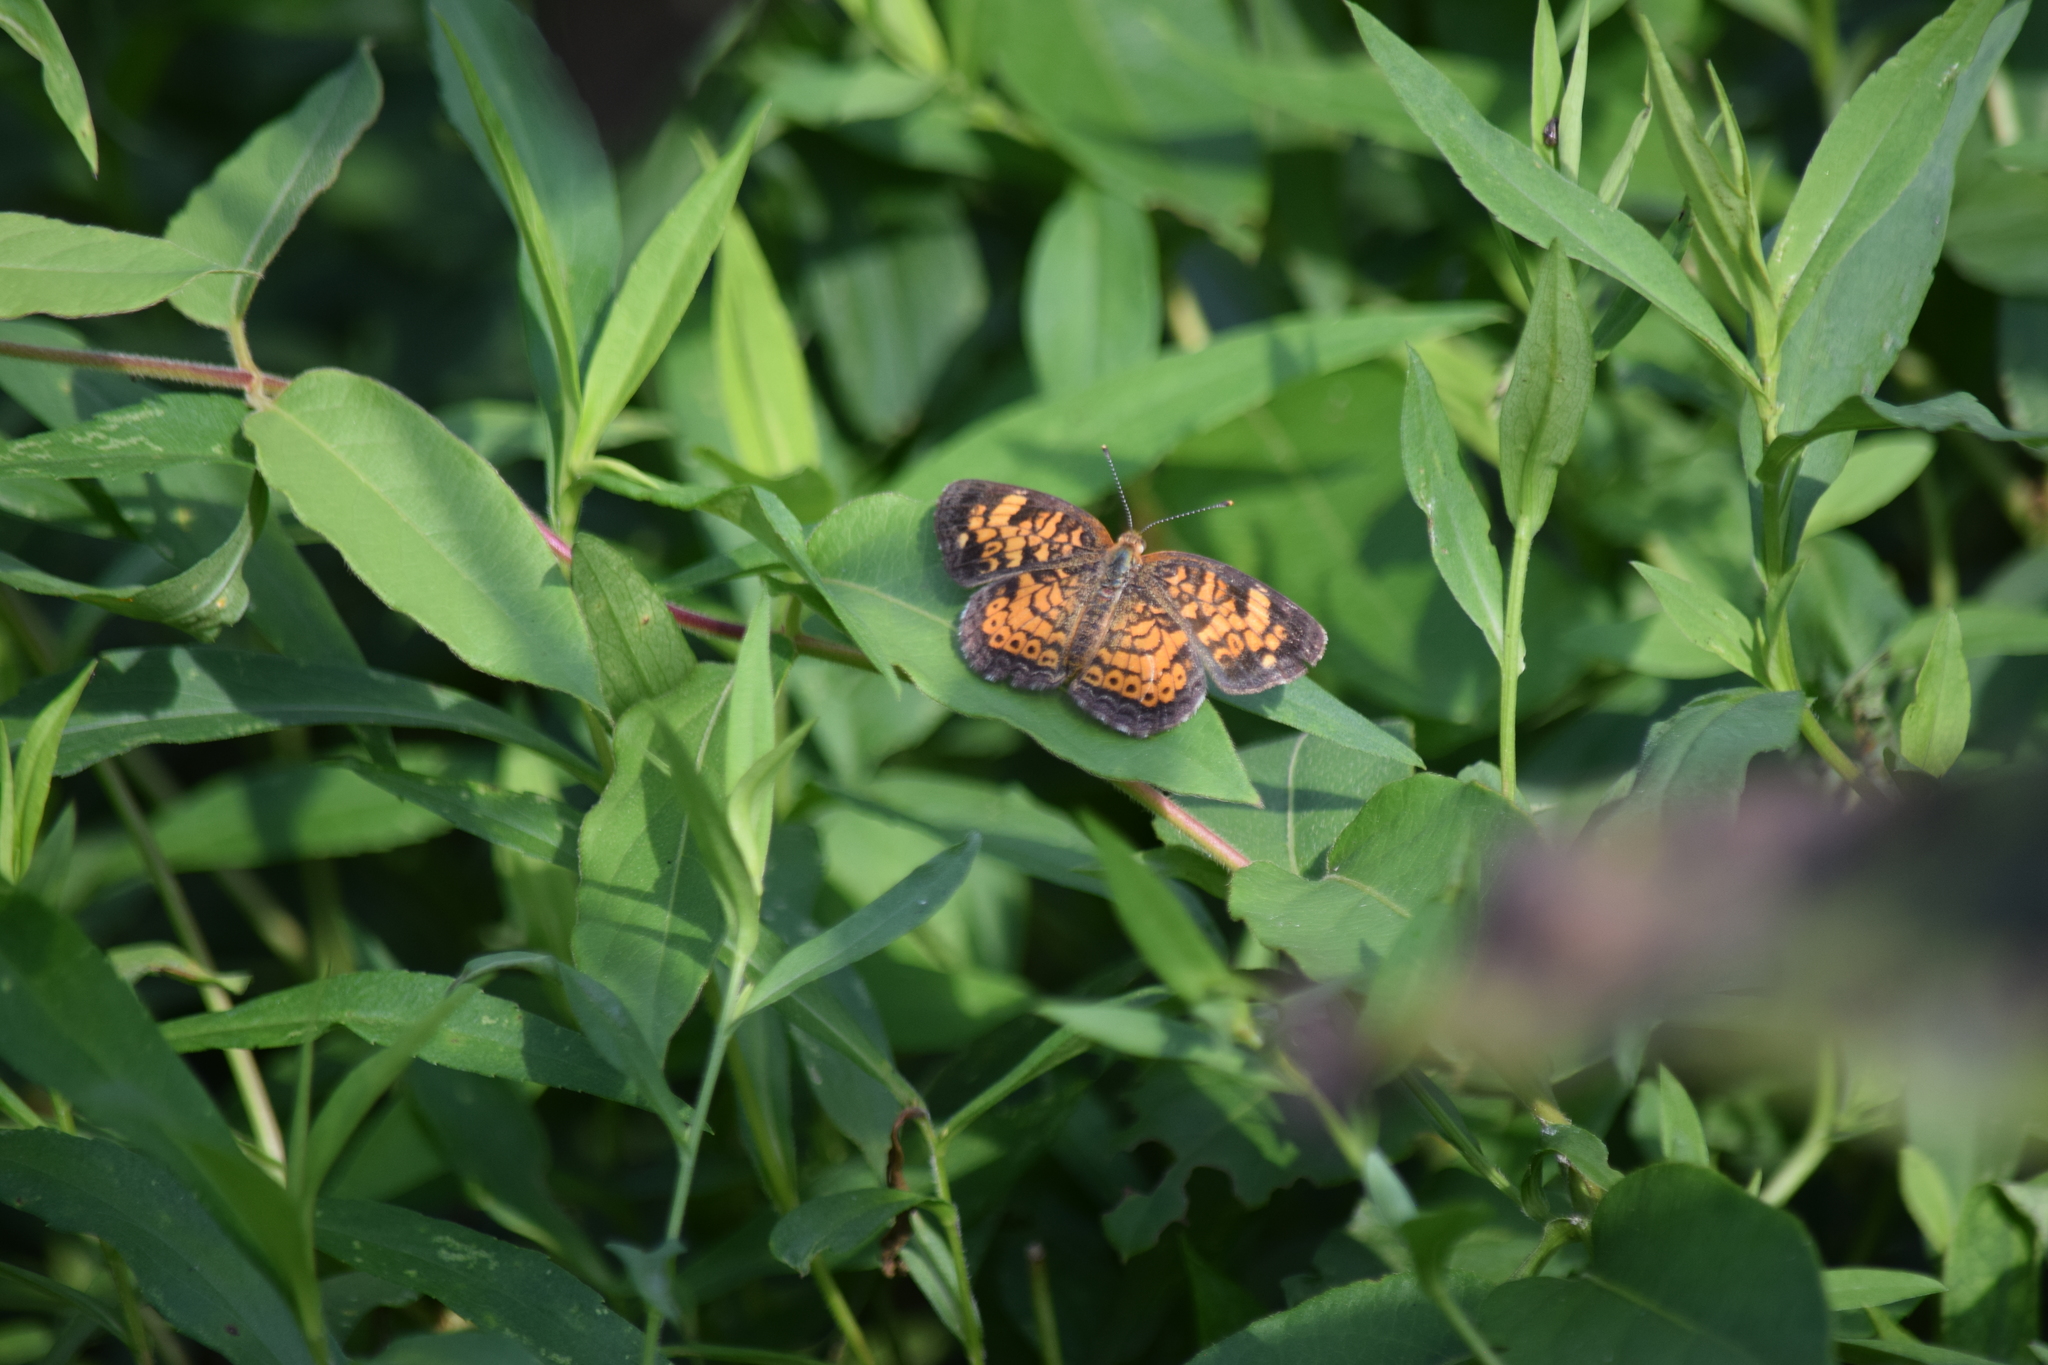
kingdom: Animalia
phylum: Arthropoda
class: Insecta
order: Lepidoptera
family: Nymphalidae
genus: Phyciodes
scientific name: Phyciodes tharos
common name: Pearl crescent
